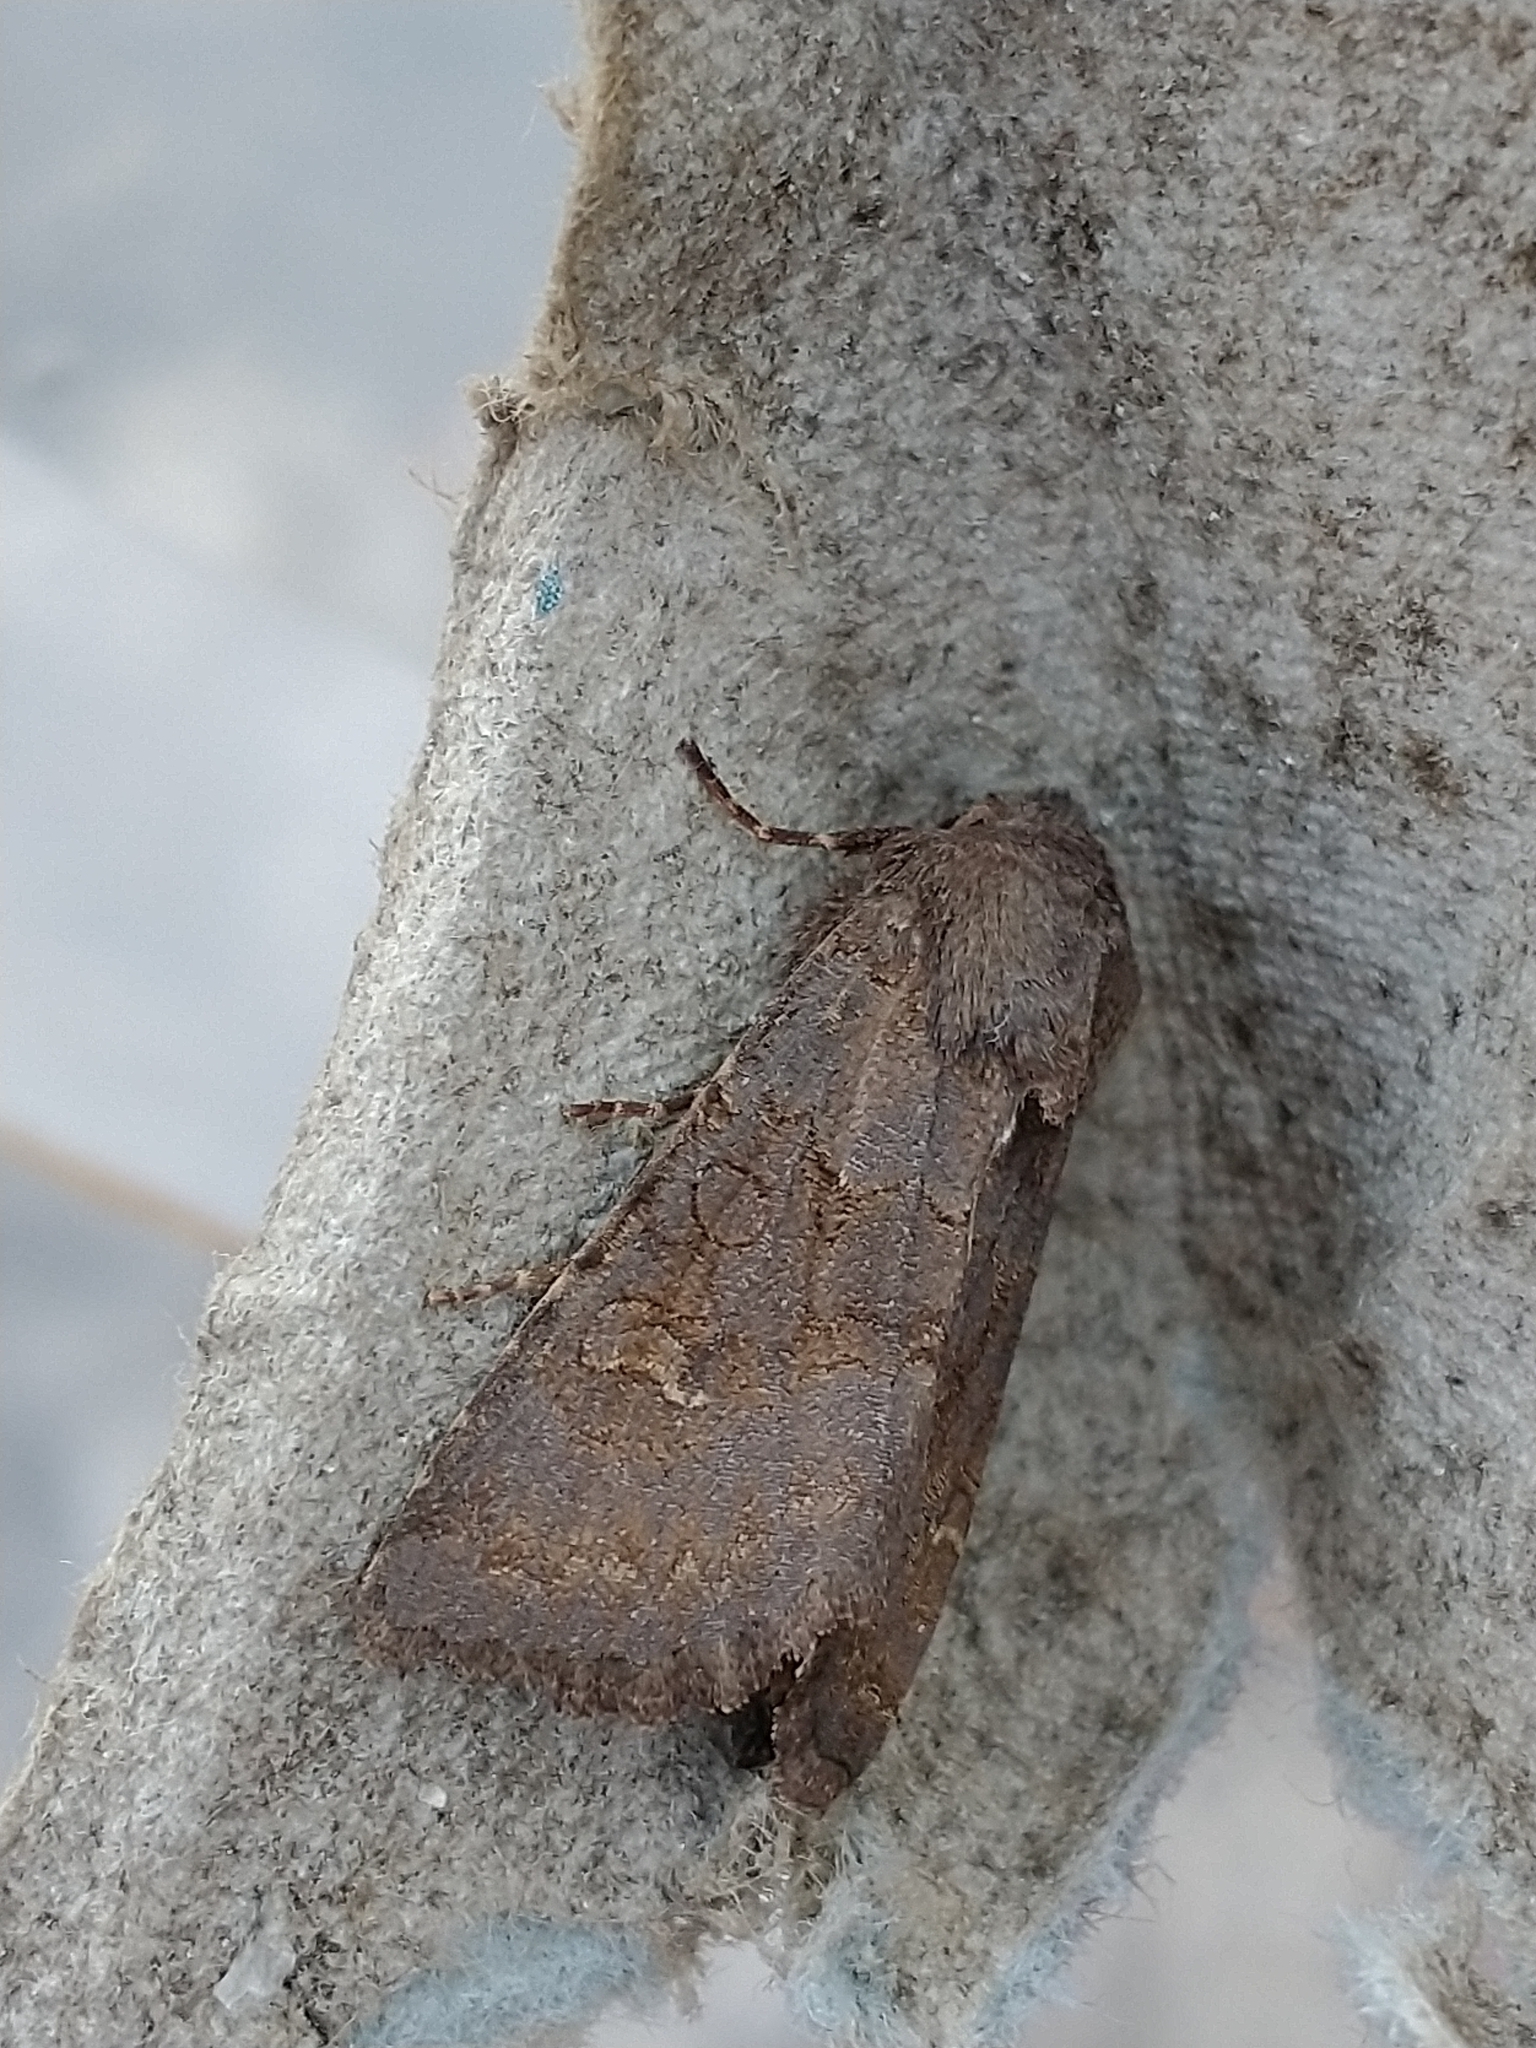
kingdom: Animalia
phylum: Arthropoda
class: Insecta
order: Lepidoptera
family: Noctuidae
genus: Aporophyla
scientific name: Aporophyla lueneburgensis
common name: Northern deep-brown dart
